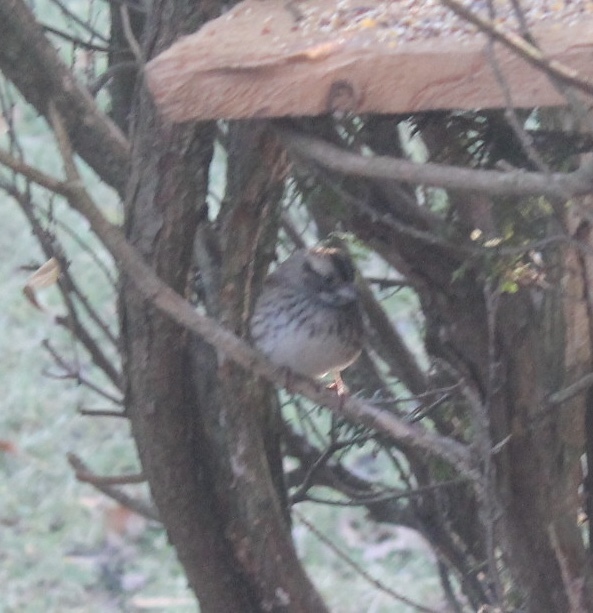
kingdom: Animalia
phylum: Chordata
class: Aves
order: Passeriformes
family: Passerellidae
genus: Zonotrichia
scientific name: Zonotrichia albicollis
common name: White-throated sparrow
